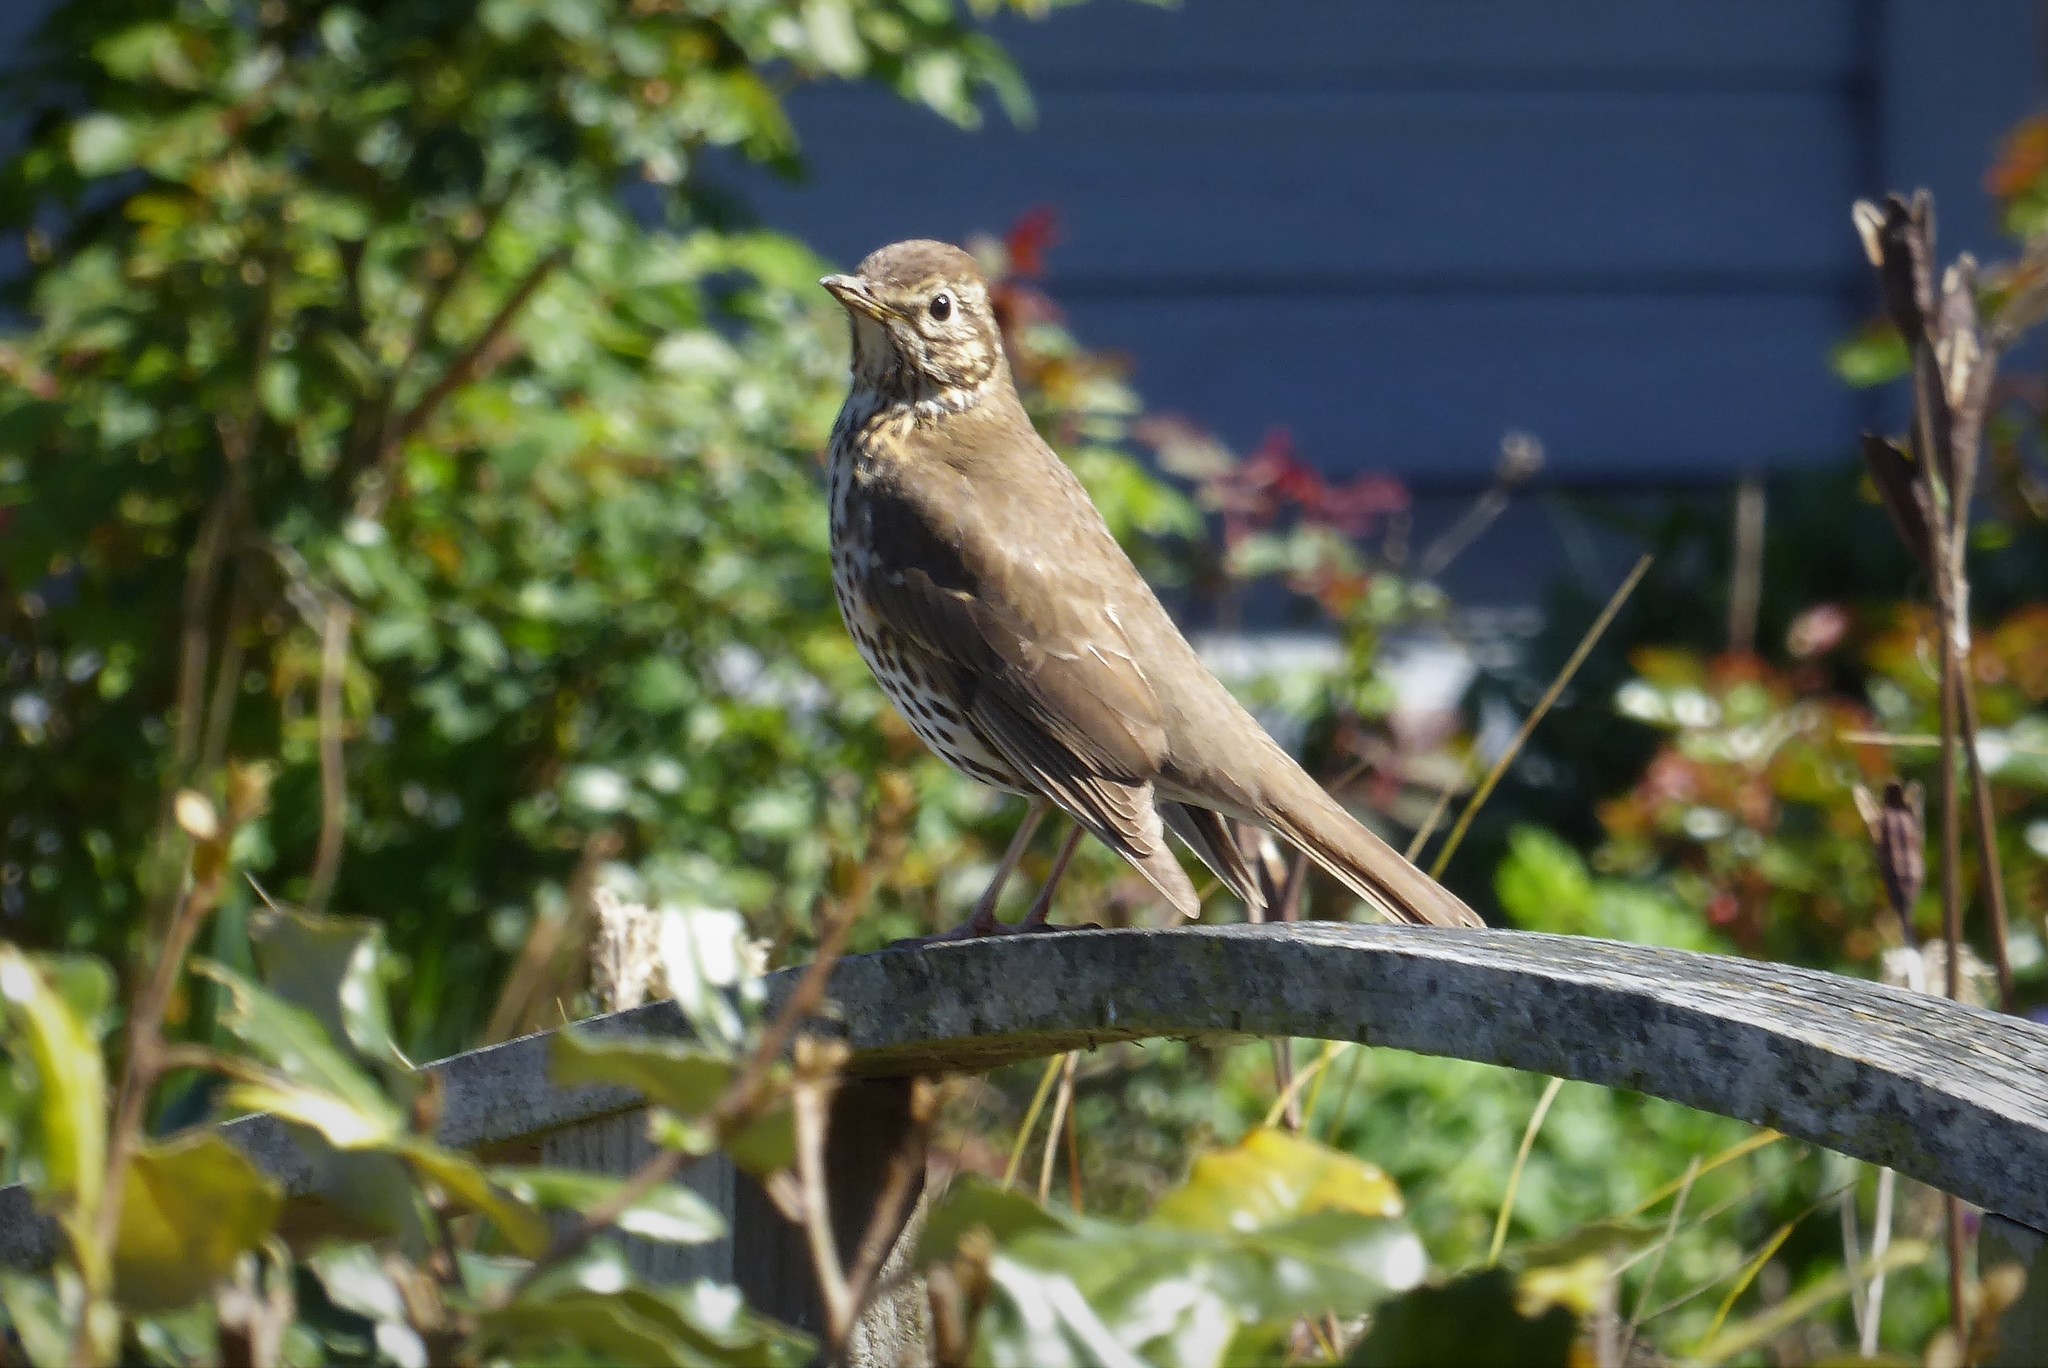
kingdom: Animalia
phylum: Chordata
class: Aves
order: Passeriformes
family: Turdidae
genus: Turdus
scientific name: Turdus philomelos
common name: Song thrush
